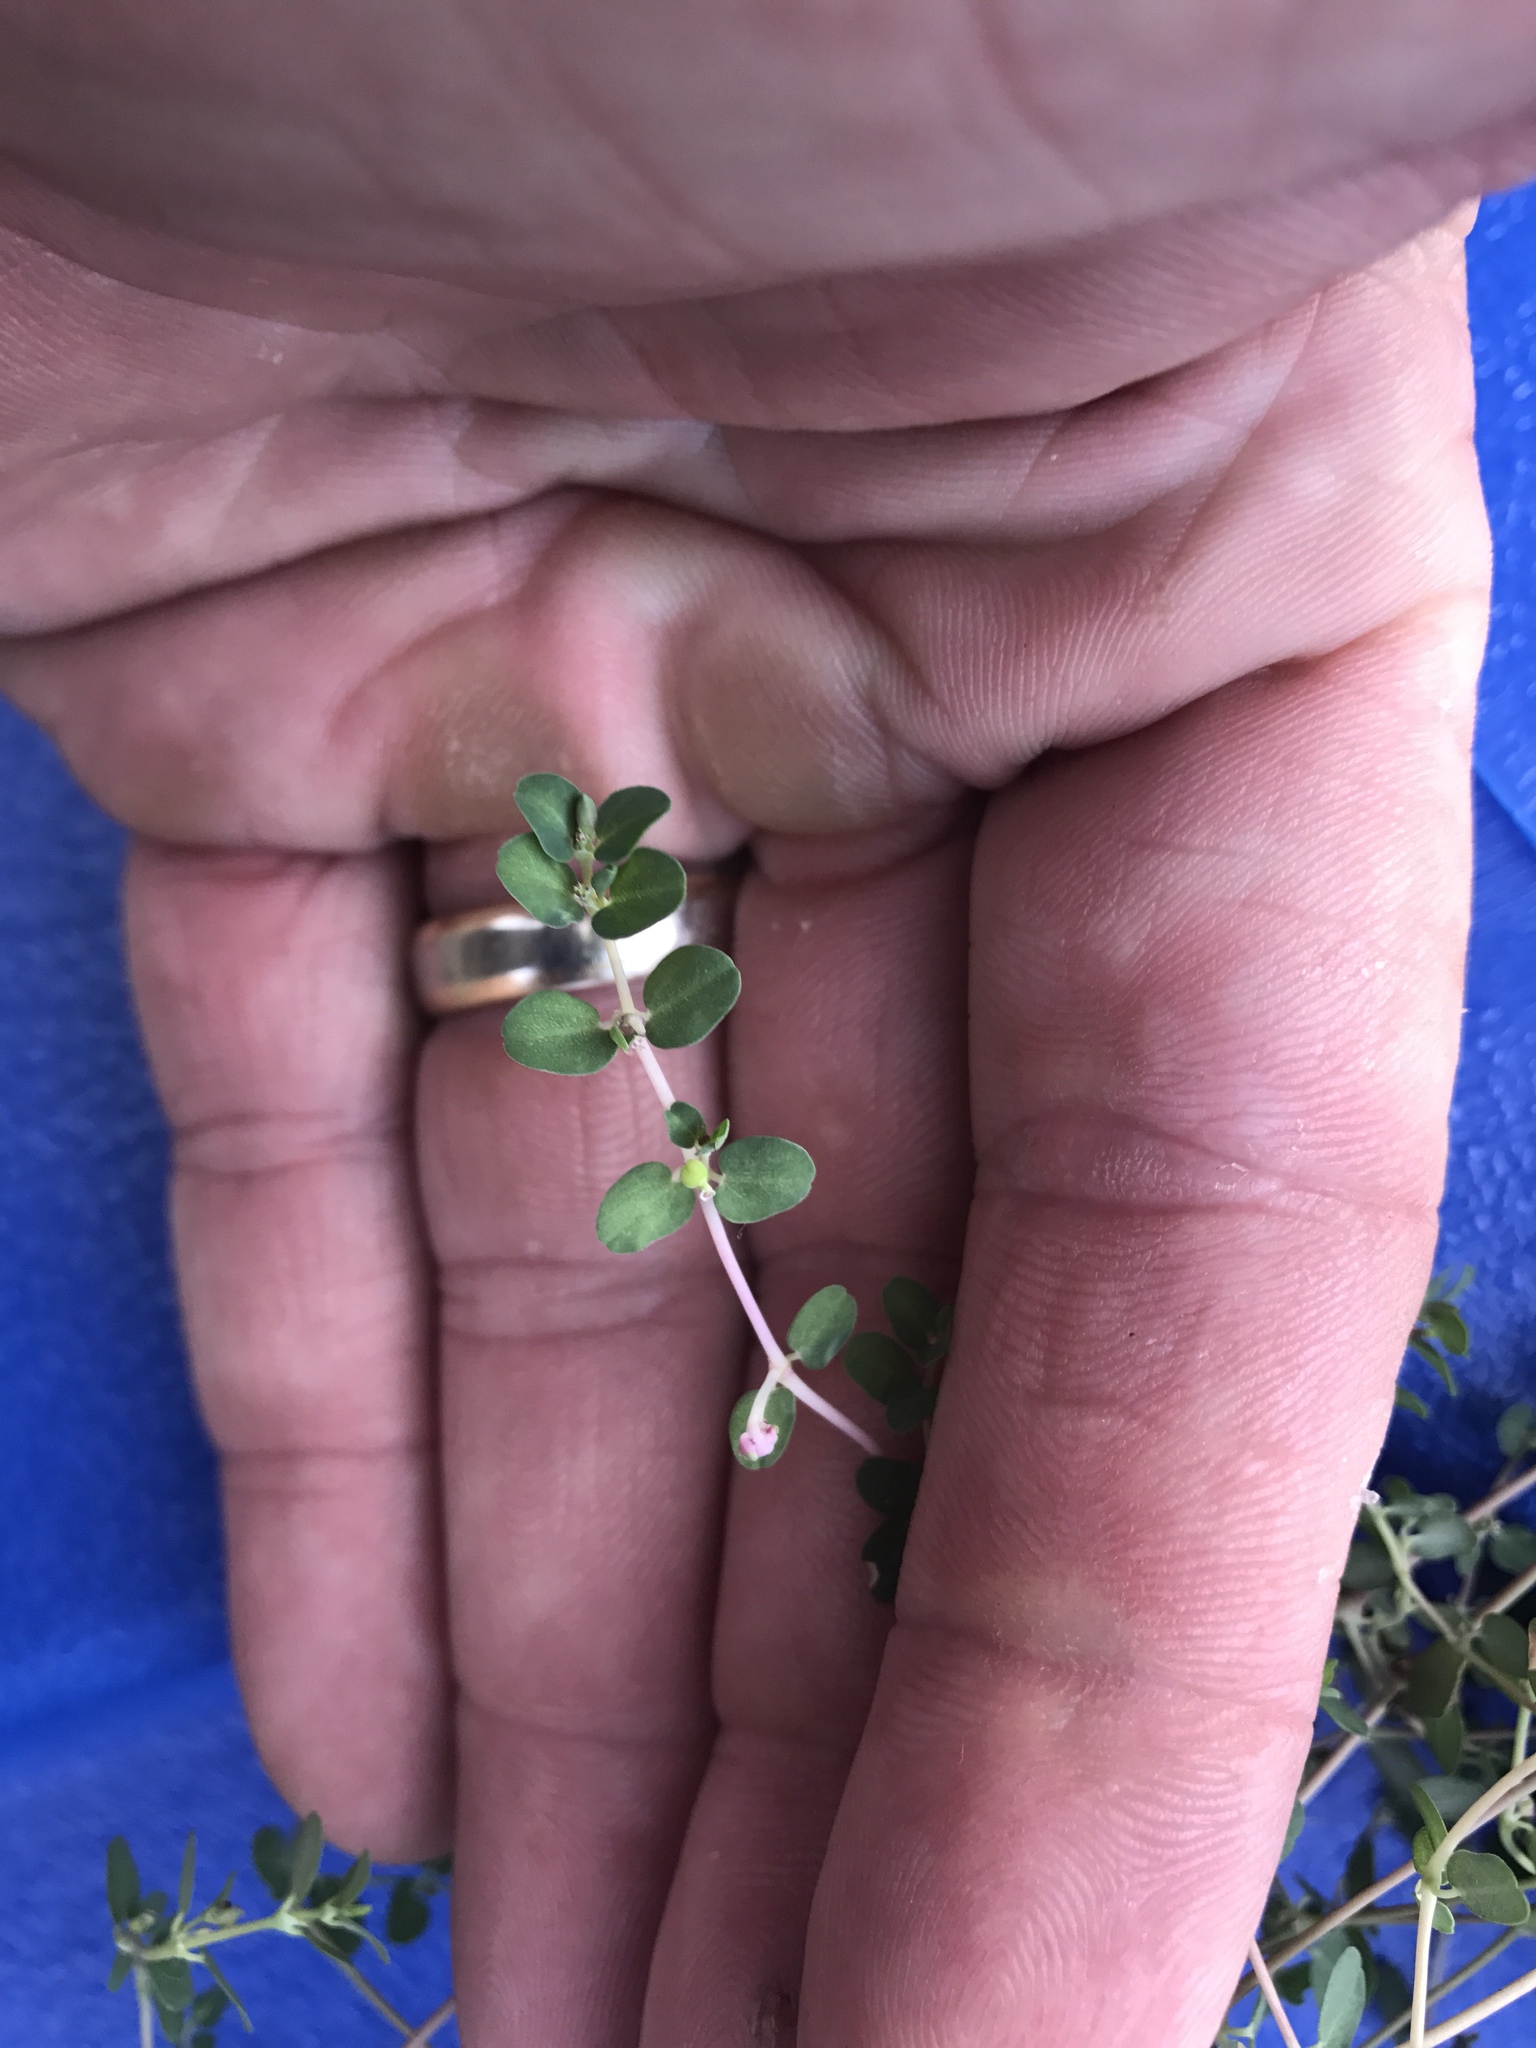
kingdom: Plantae
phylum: Tracheophyta
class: Magnoliopsida
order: Malpighiales
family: Euphorbiaceae
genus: Euphorbia
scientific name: Euphorbia serpens
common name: Matted sandmat
